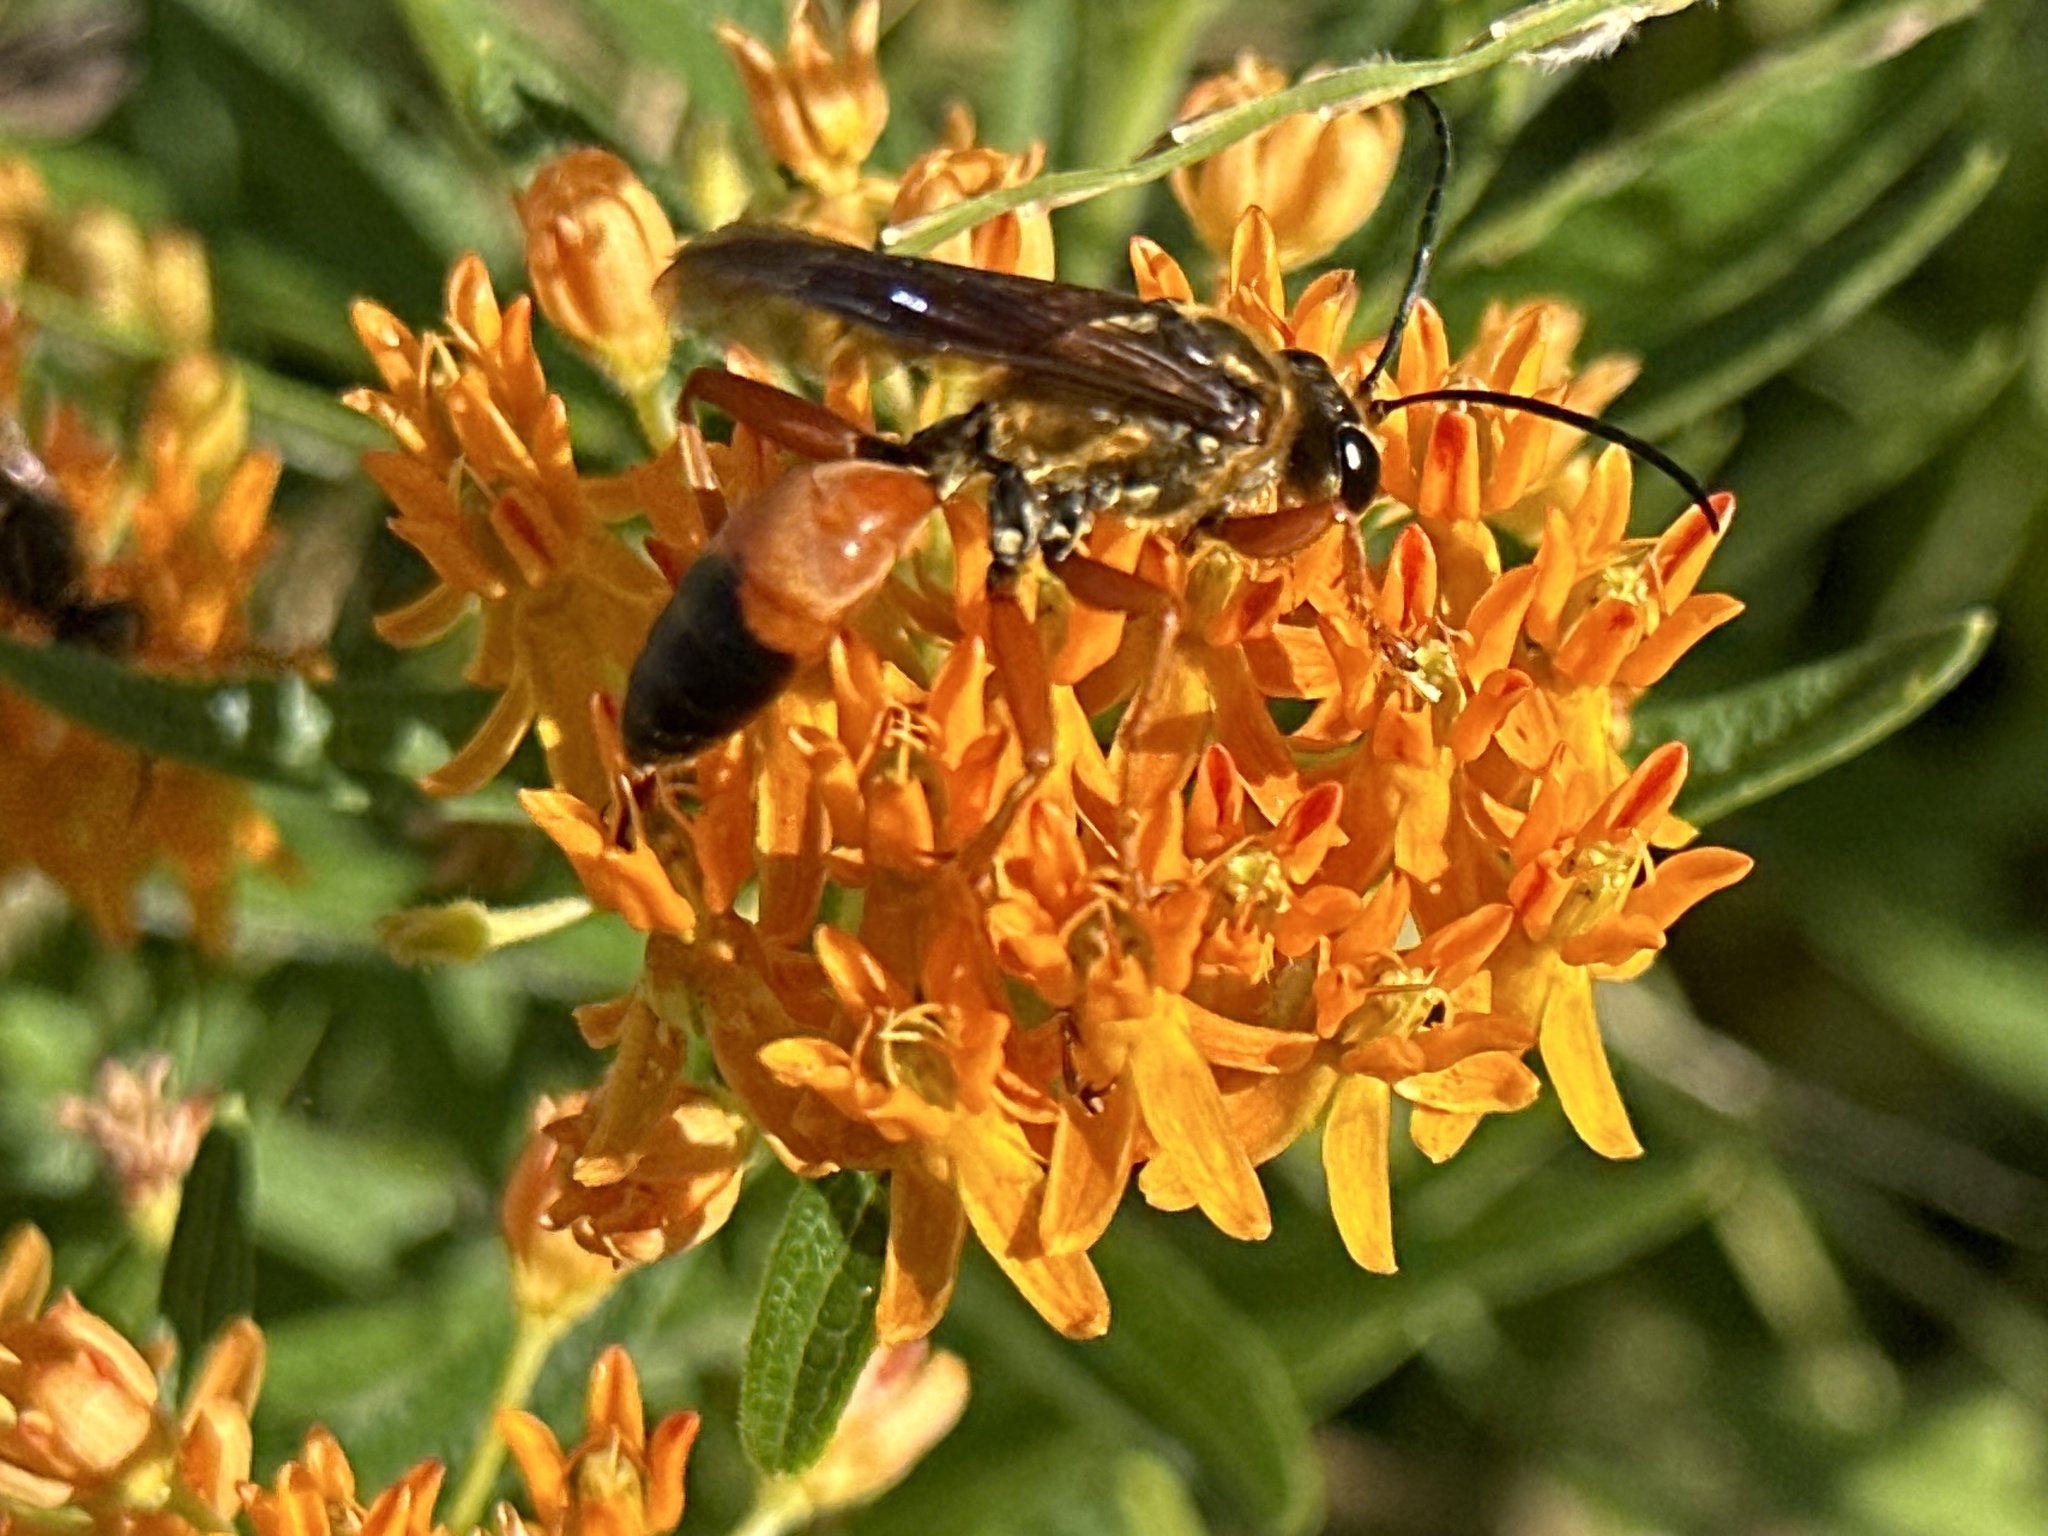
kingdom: Animalia
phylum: Arthropoda
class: Insecta
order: Hymenoptera
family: Sphecidae
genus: Sphex
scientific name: Sphex ichneumoneus
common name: Great golden digger wasp
